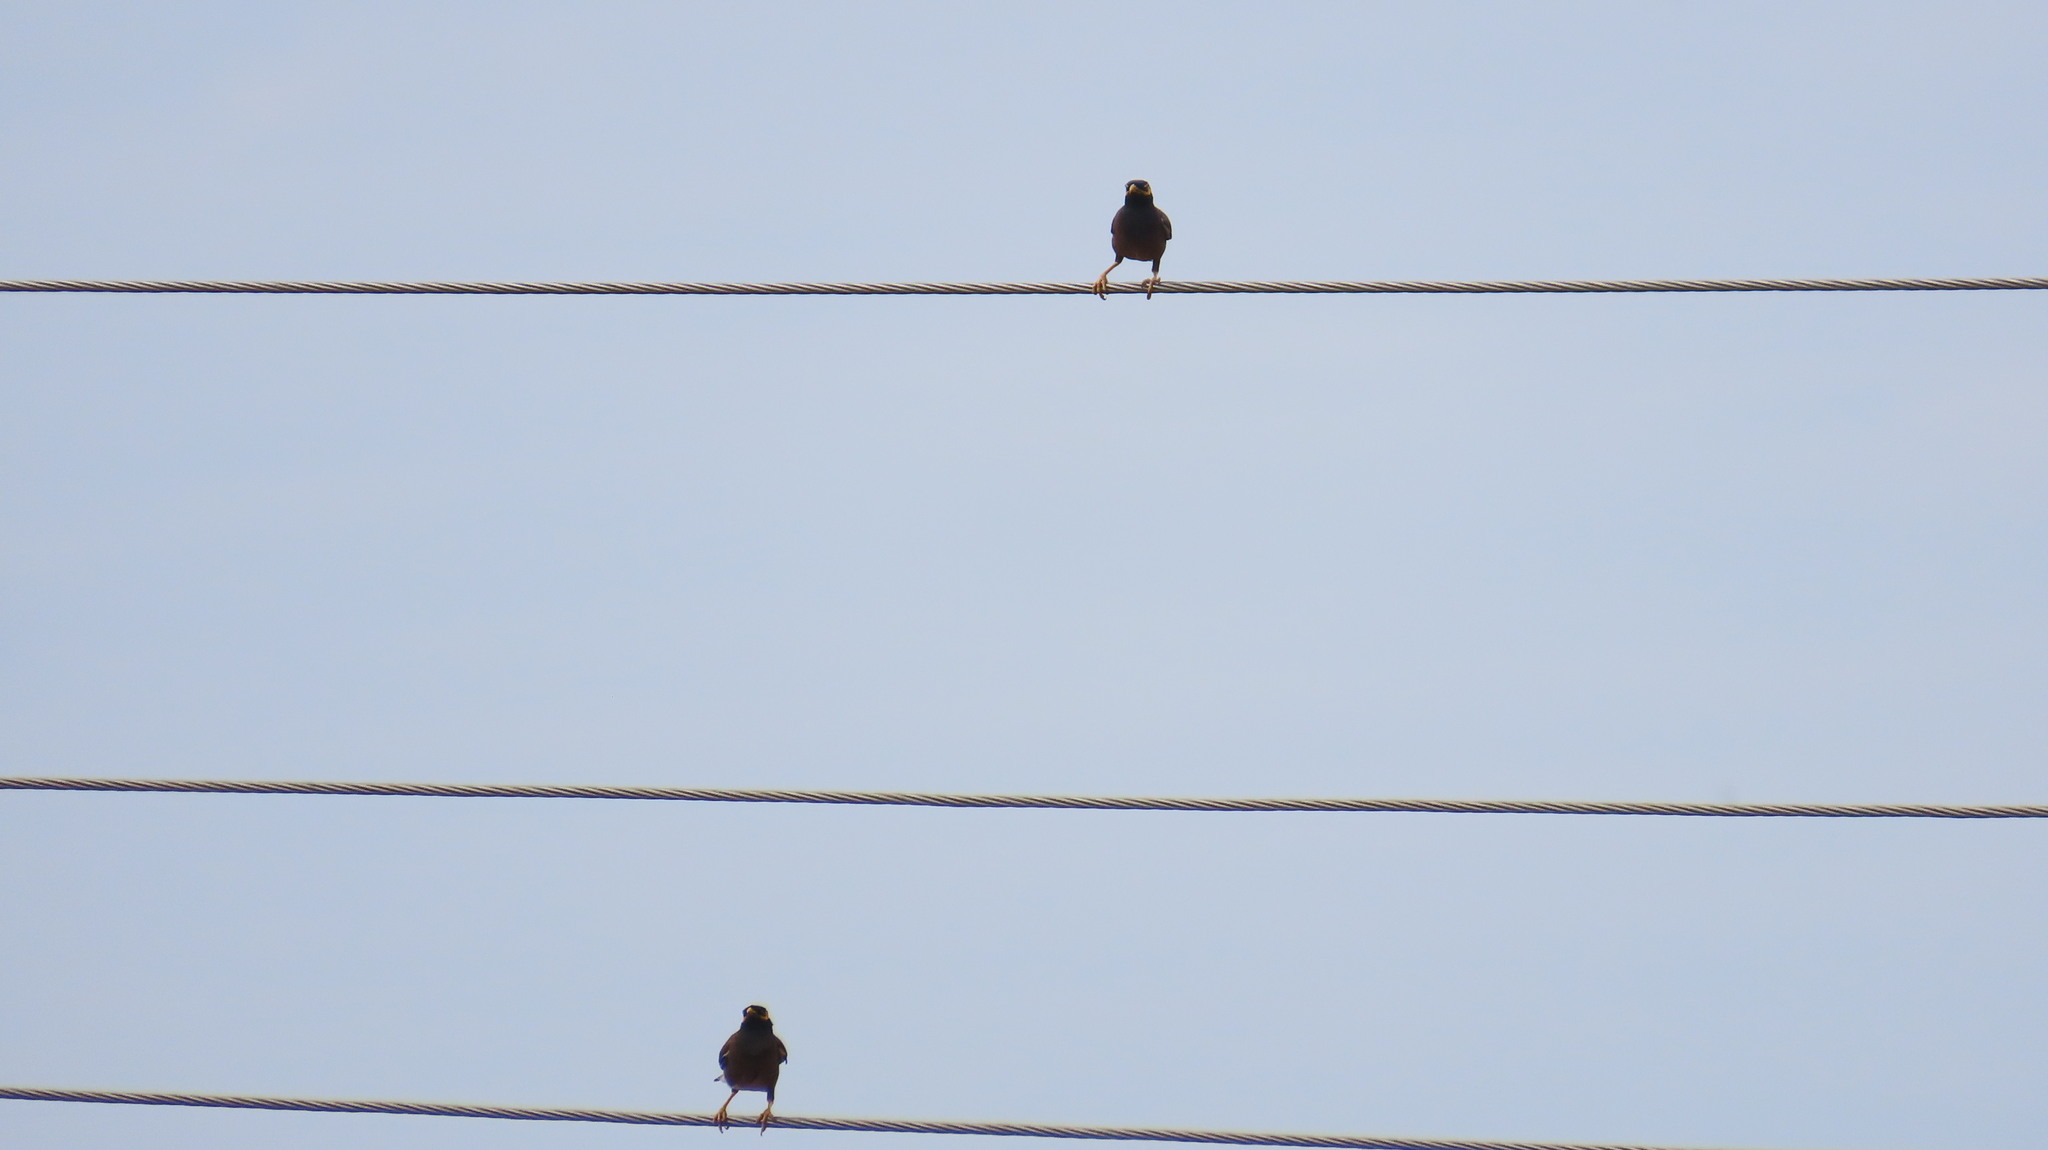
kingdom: Animalia
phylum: Chordata
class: Aves
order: Passeriformes
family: Sturnidae
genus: Acridotheres
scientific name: Acridotheres tristis
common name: Common myna
